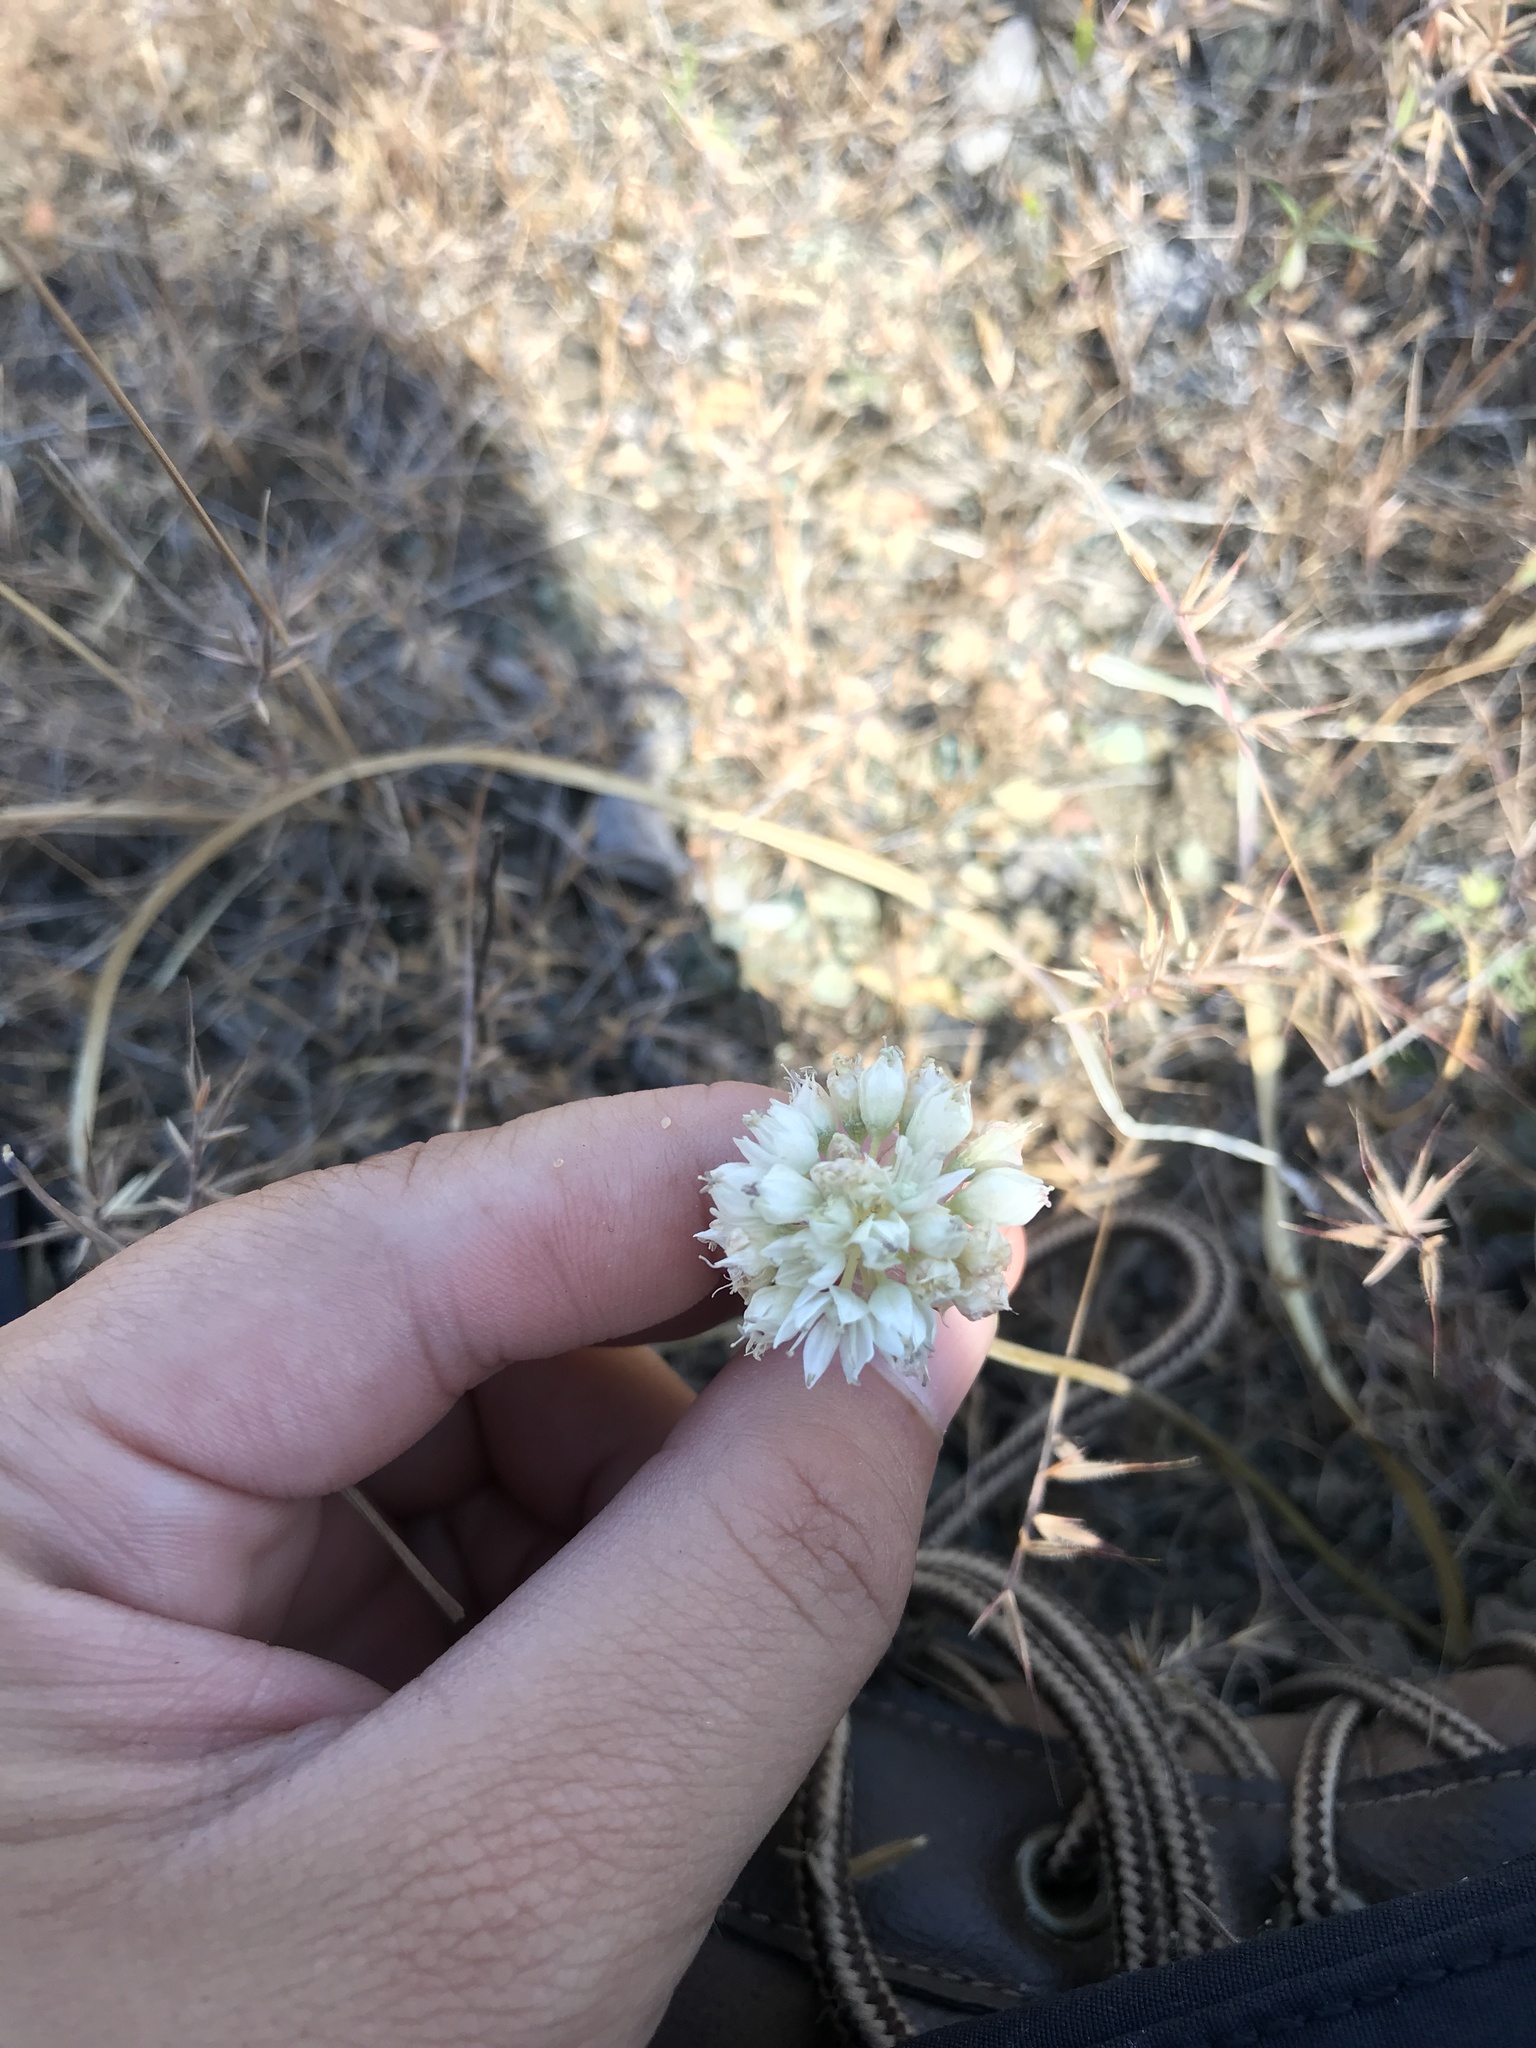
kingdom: Plantae
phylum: Tracheophyta
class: Liliopsida
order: Asparagales
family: Amaryllidaceae
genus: Allium
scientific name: Allium amplectens
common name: Narrow-leaved onion
